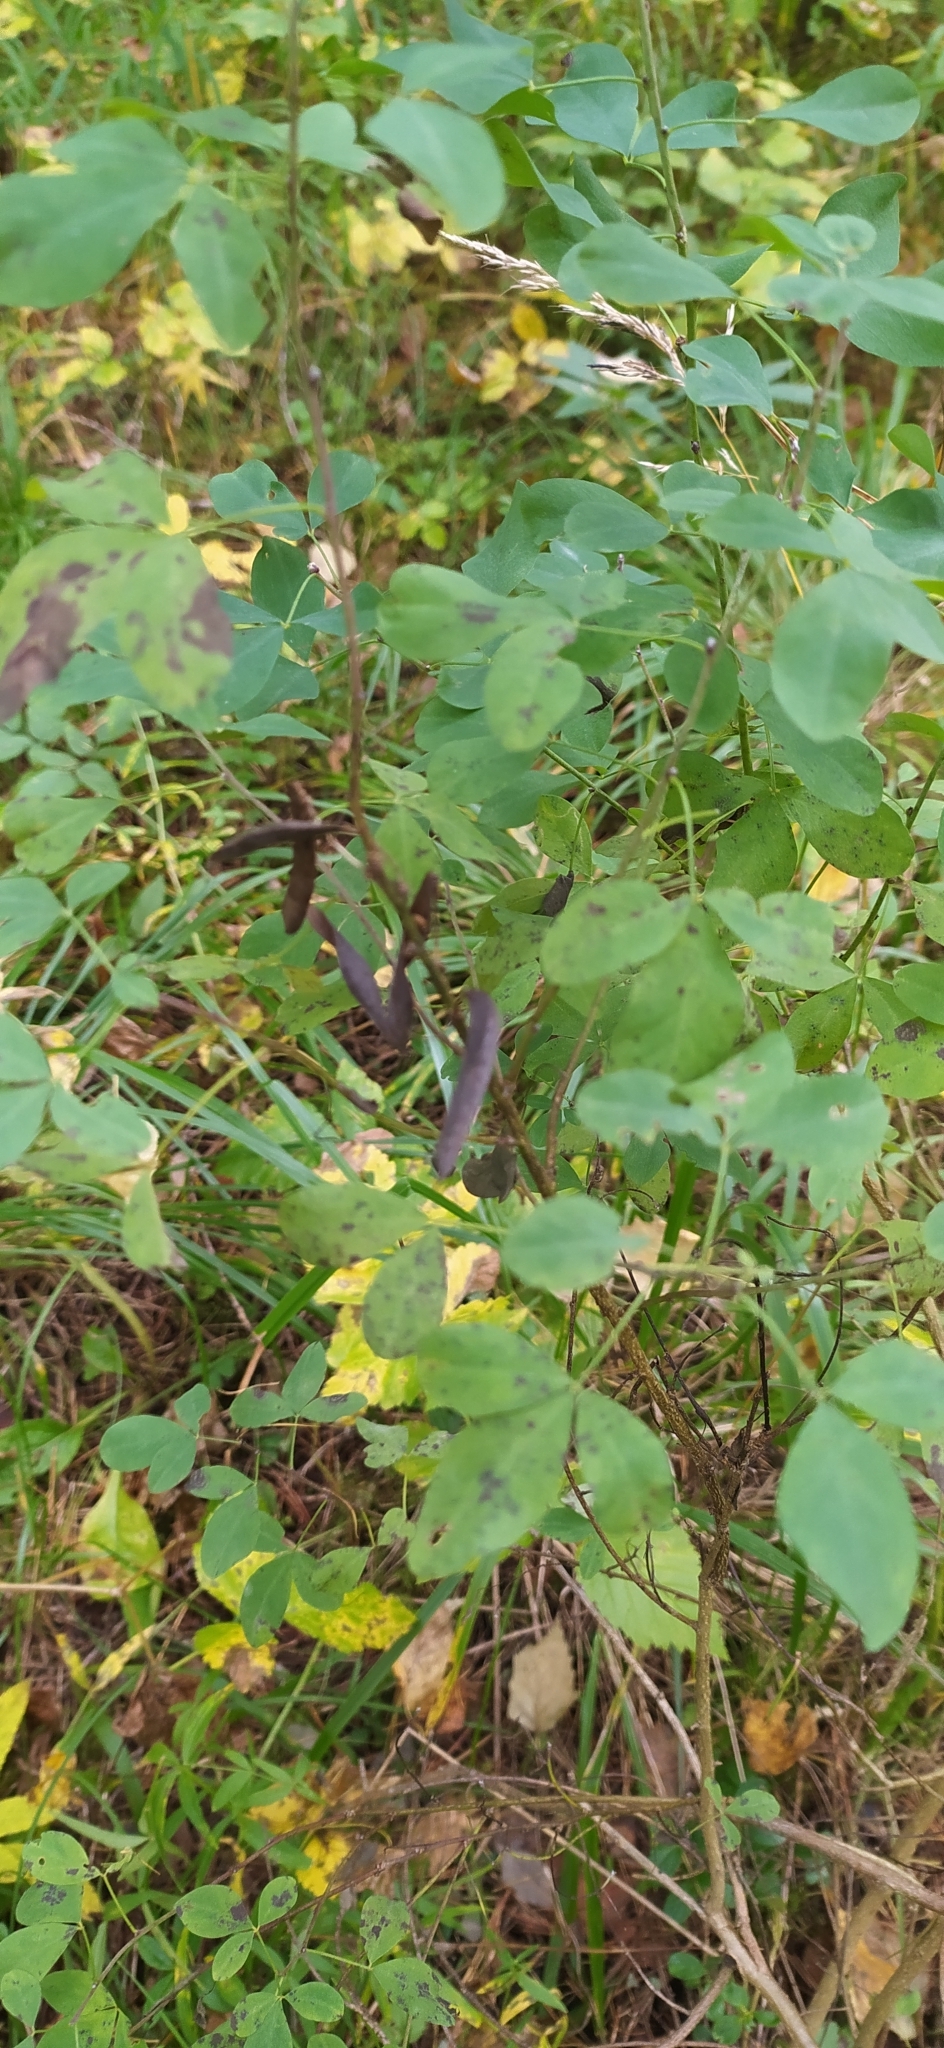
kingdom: Plantae
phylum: Tracheophyta
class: Magnoliopsida
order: Fabales
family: Fabaceae
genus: Chamaecytisus
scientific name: Chamaecytisus ruthenicus
